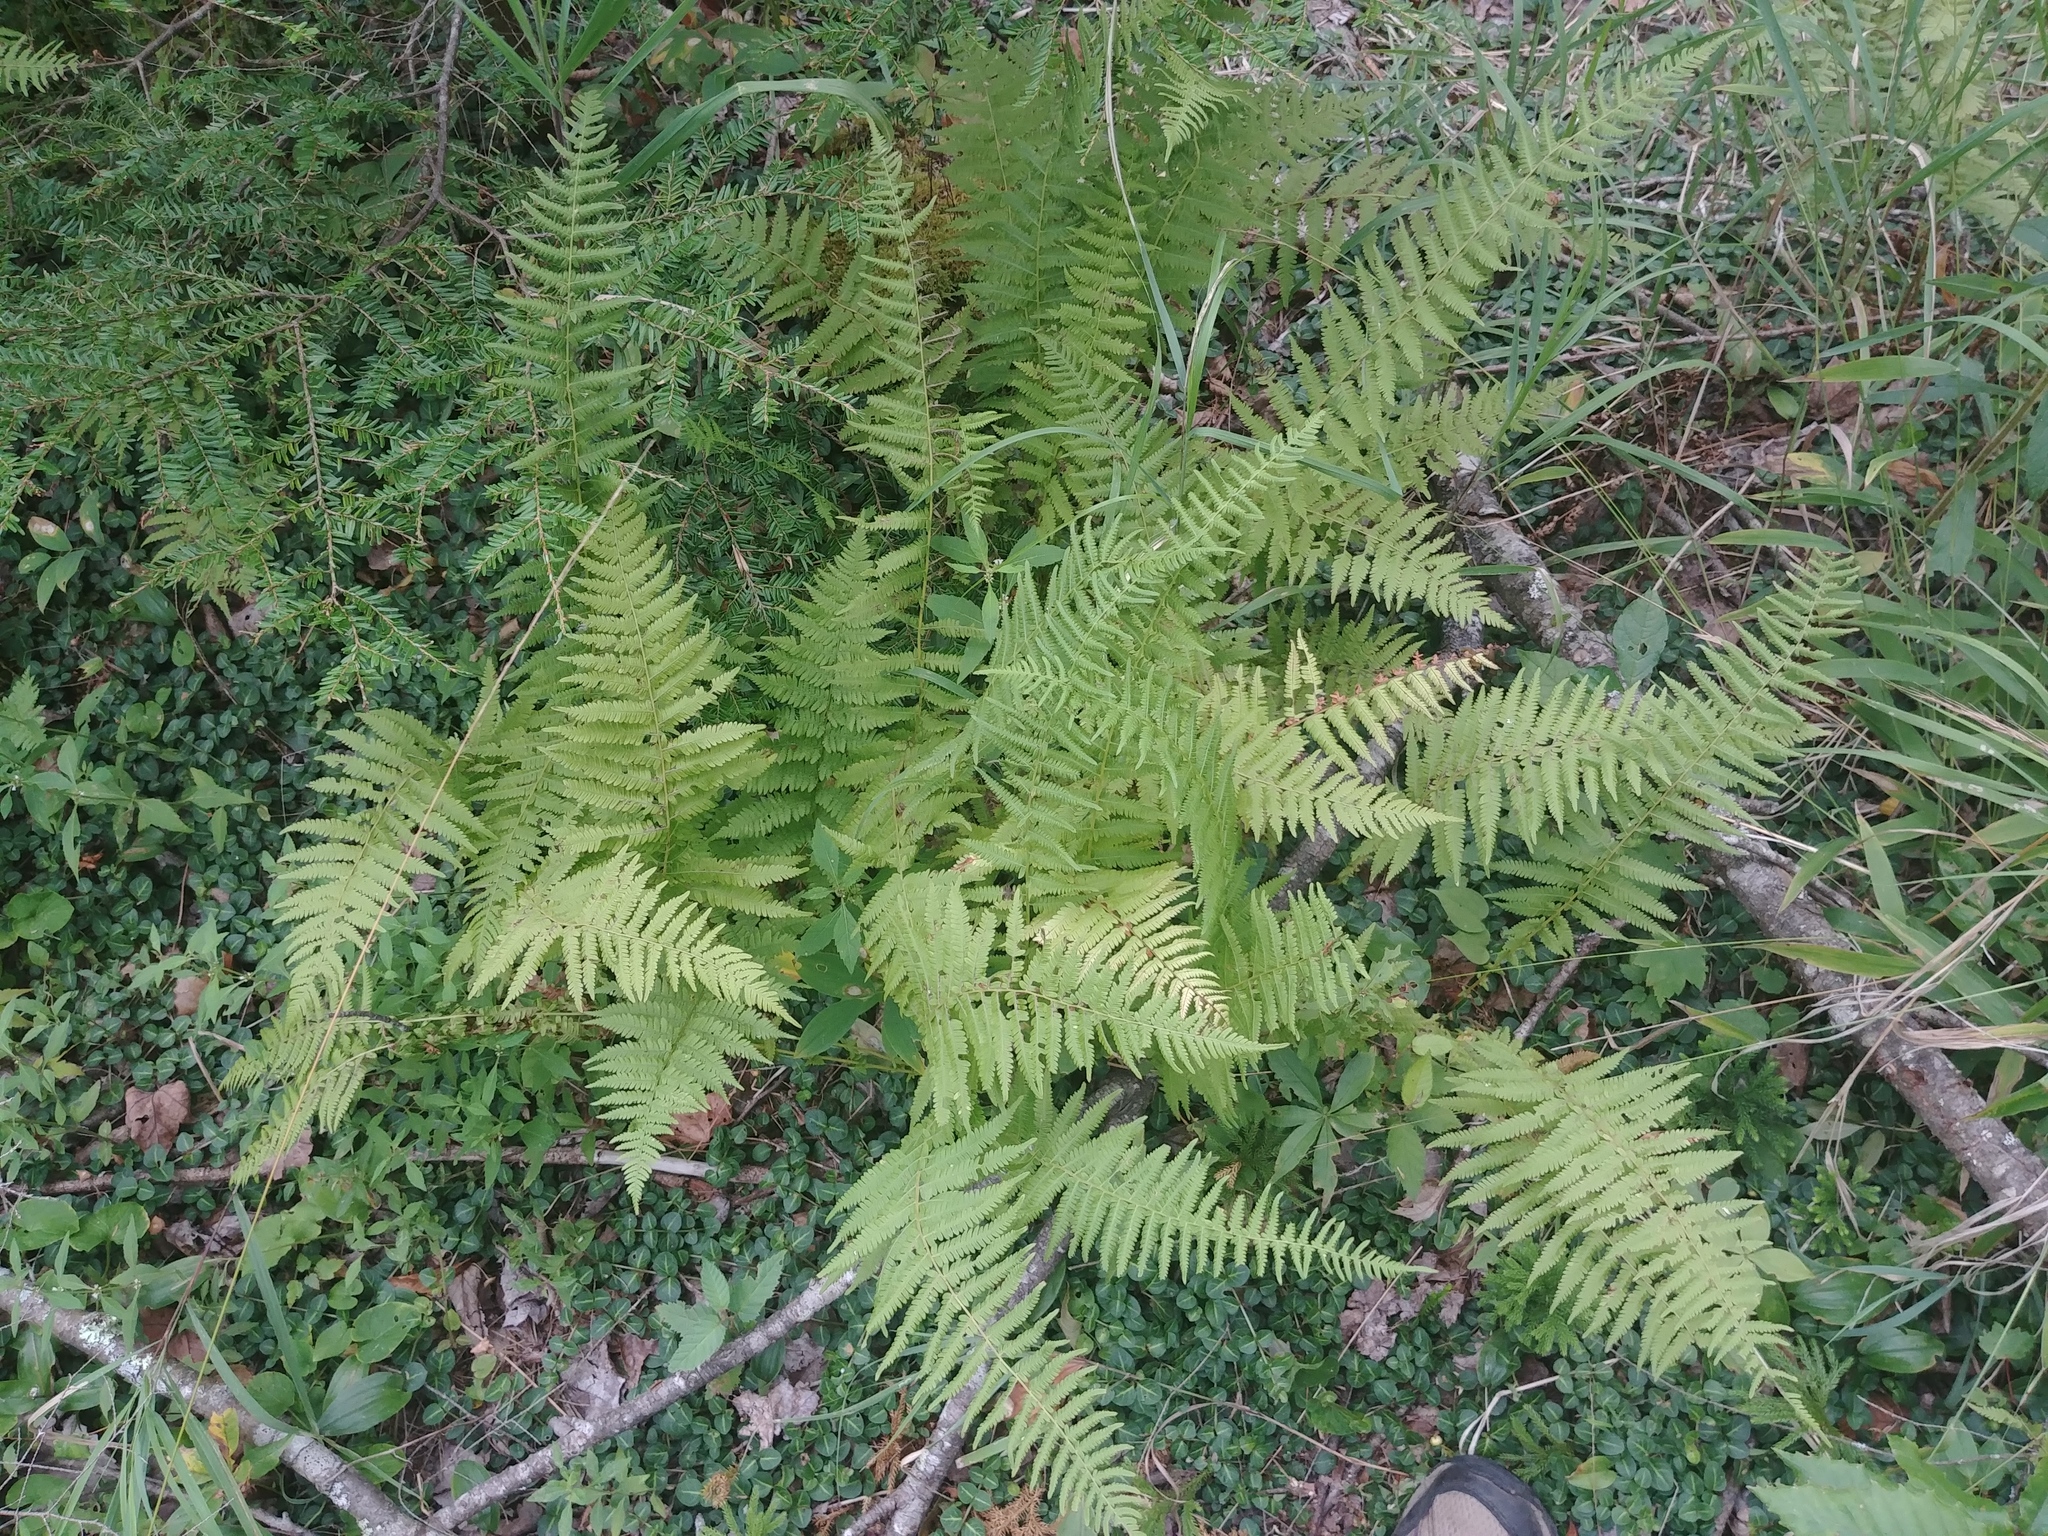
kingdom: Plantae
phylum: Tracheophyta
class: Polypodiopsida
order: Polypodiales
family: Thelypteridaceae
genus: Amauropelta
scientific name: Amauropelta noveboracensis
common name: New york fern
